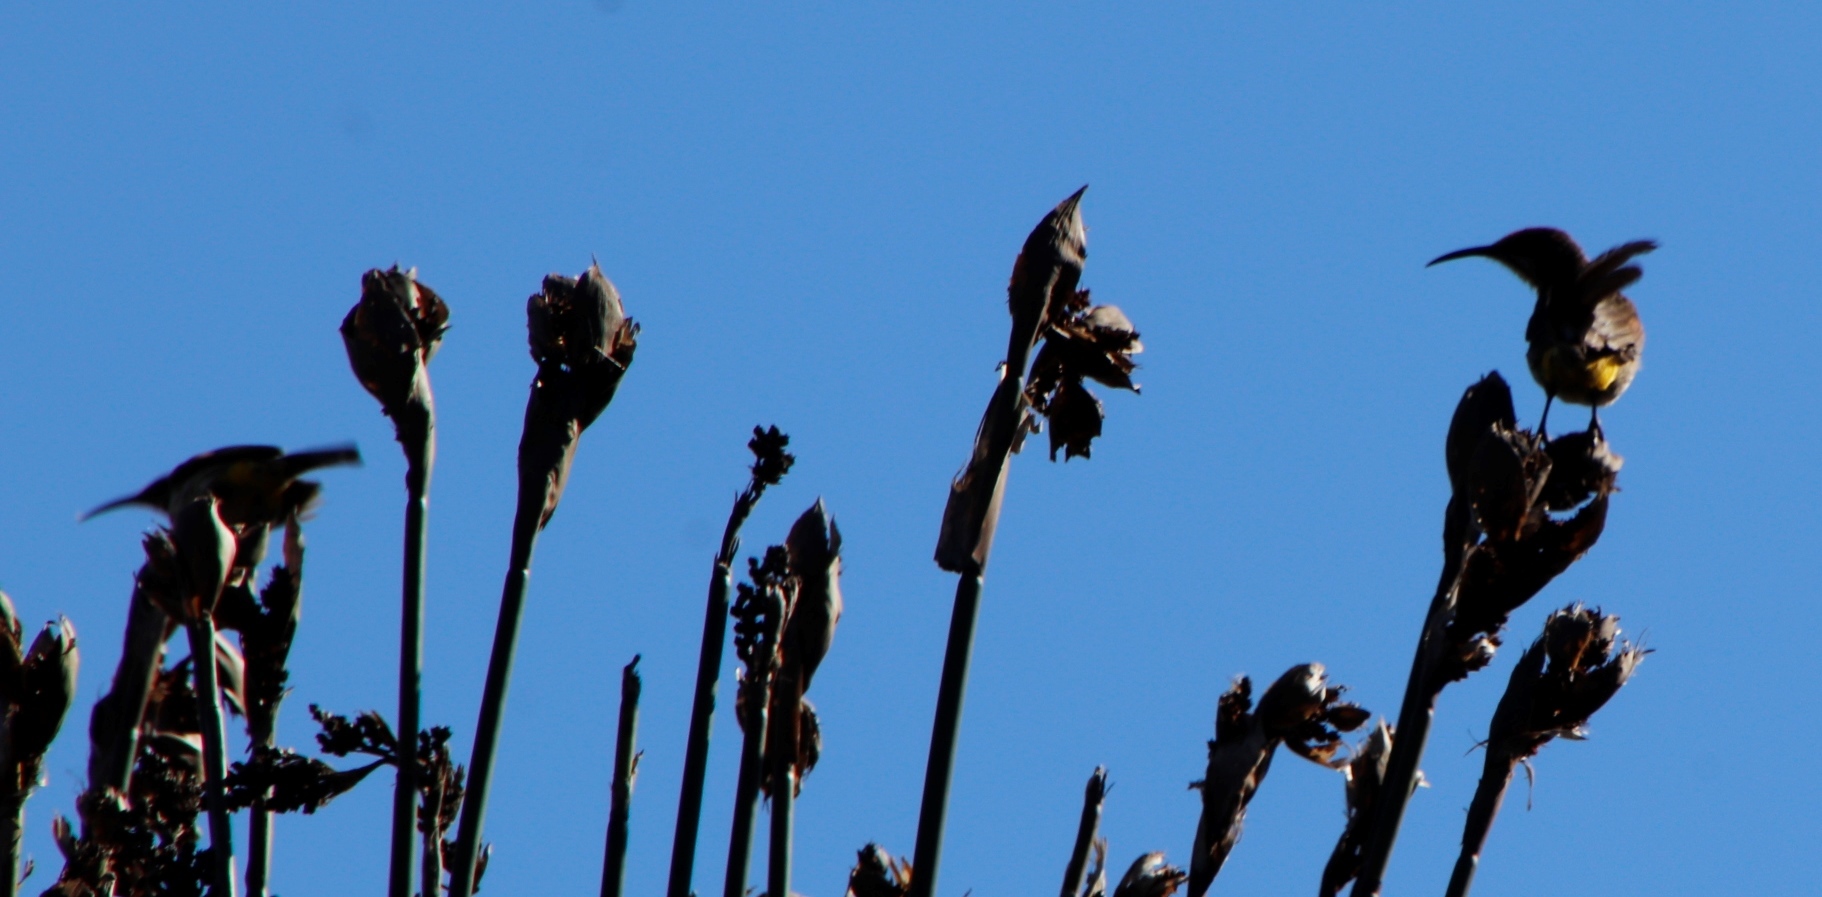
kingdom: Animalia
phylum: Chordata
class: Aves
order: Passeriformes
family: Promeropidae
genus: Promerops
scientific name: Promerops cafer
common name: Cape sugarbird
